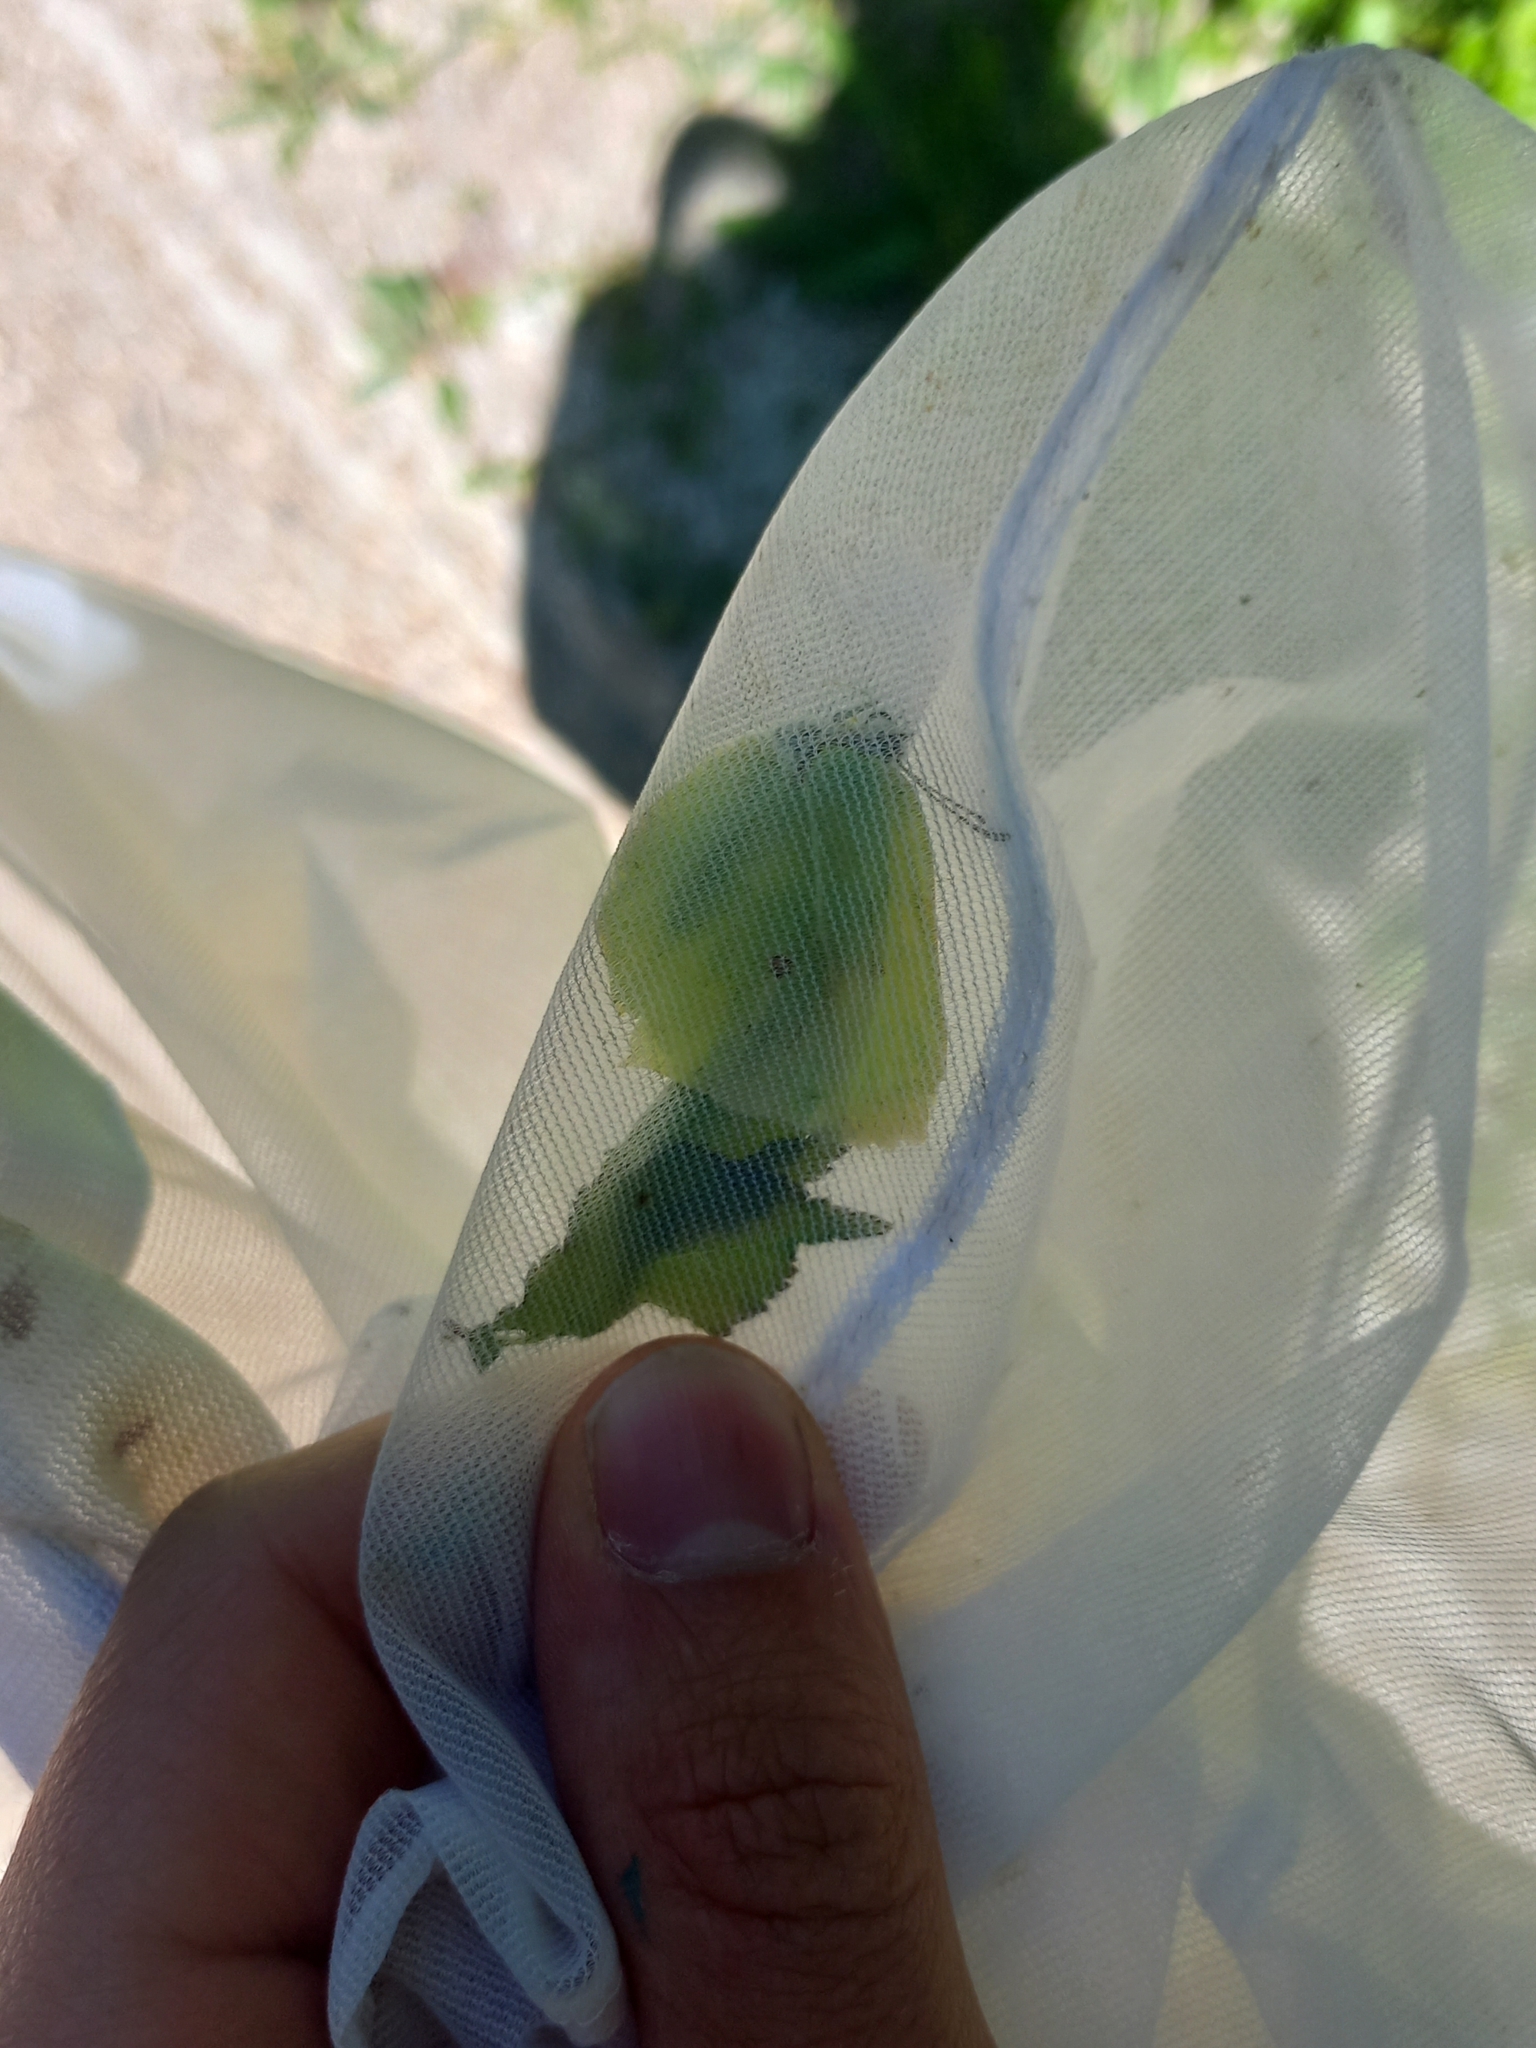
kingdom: Animalia
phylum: Arthropoda
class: Insecta
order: Lepidoptera
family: Pieridae
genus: Gonepteryx
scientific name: Gonepteryx rhamni
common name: Brimstone
